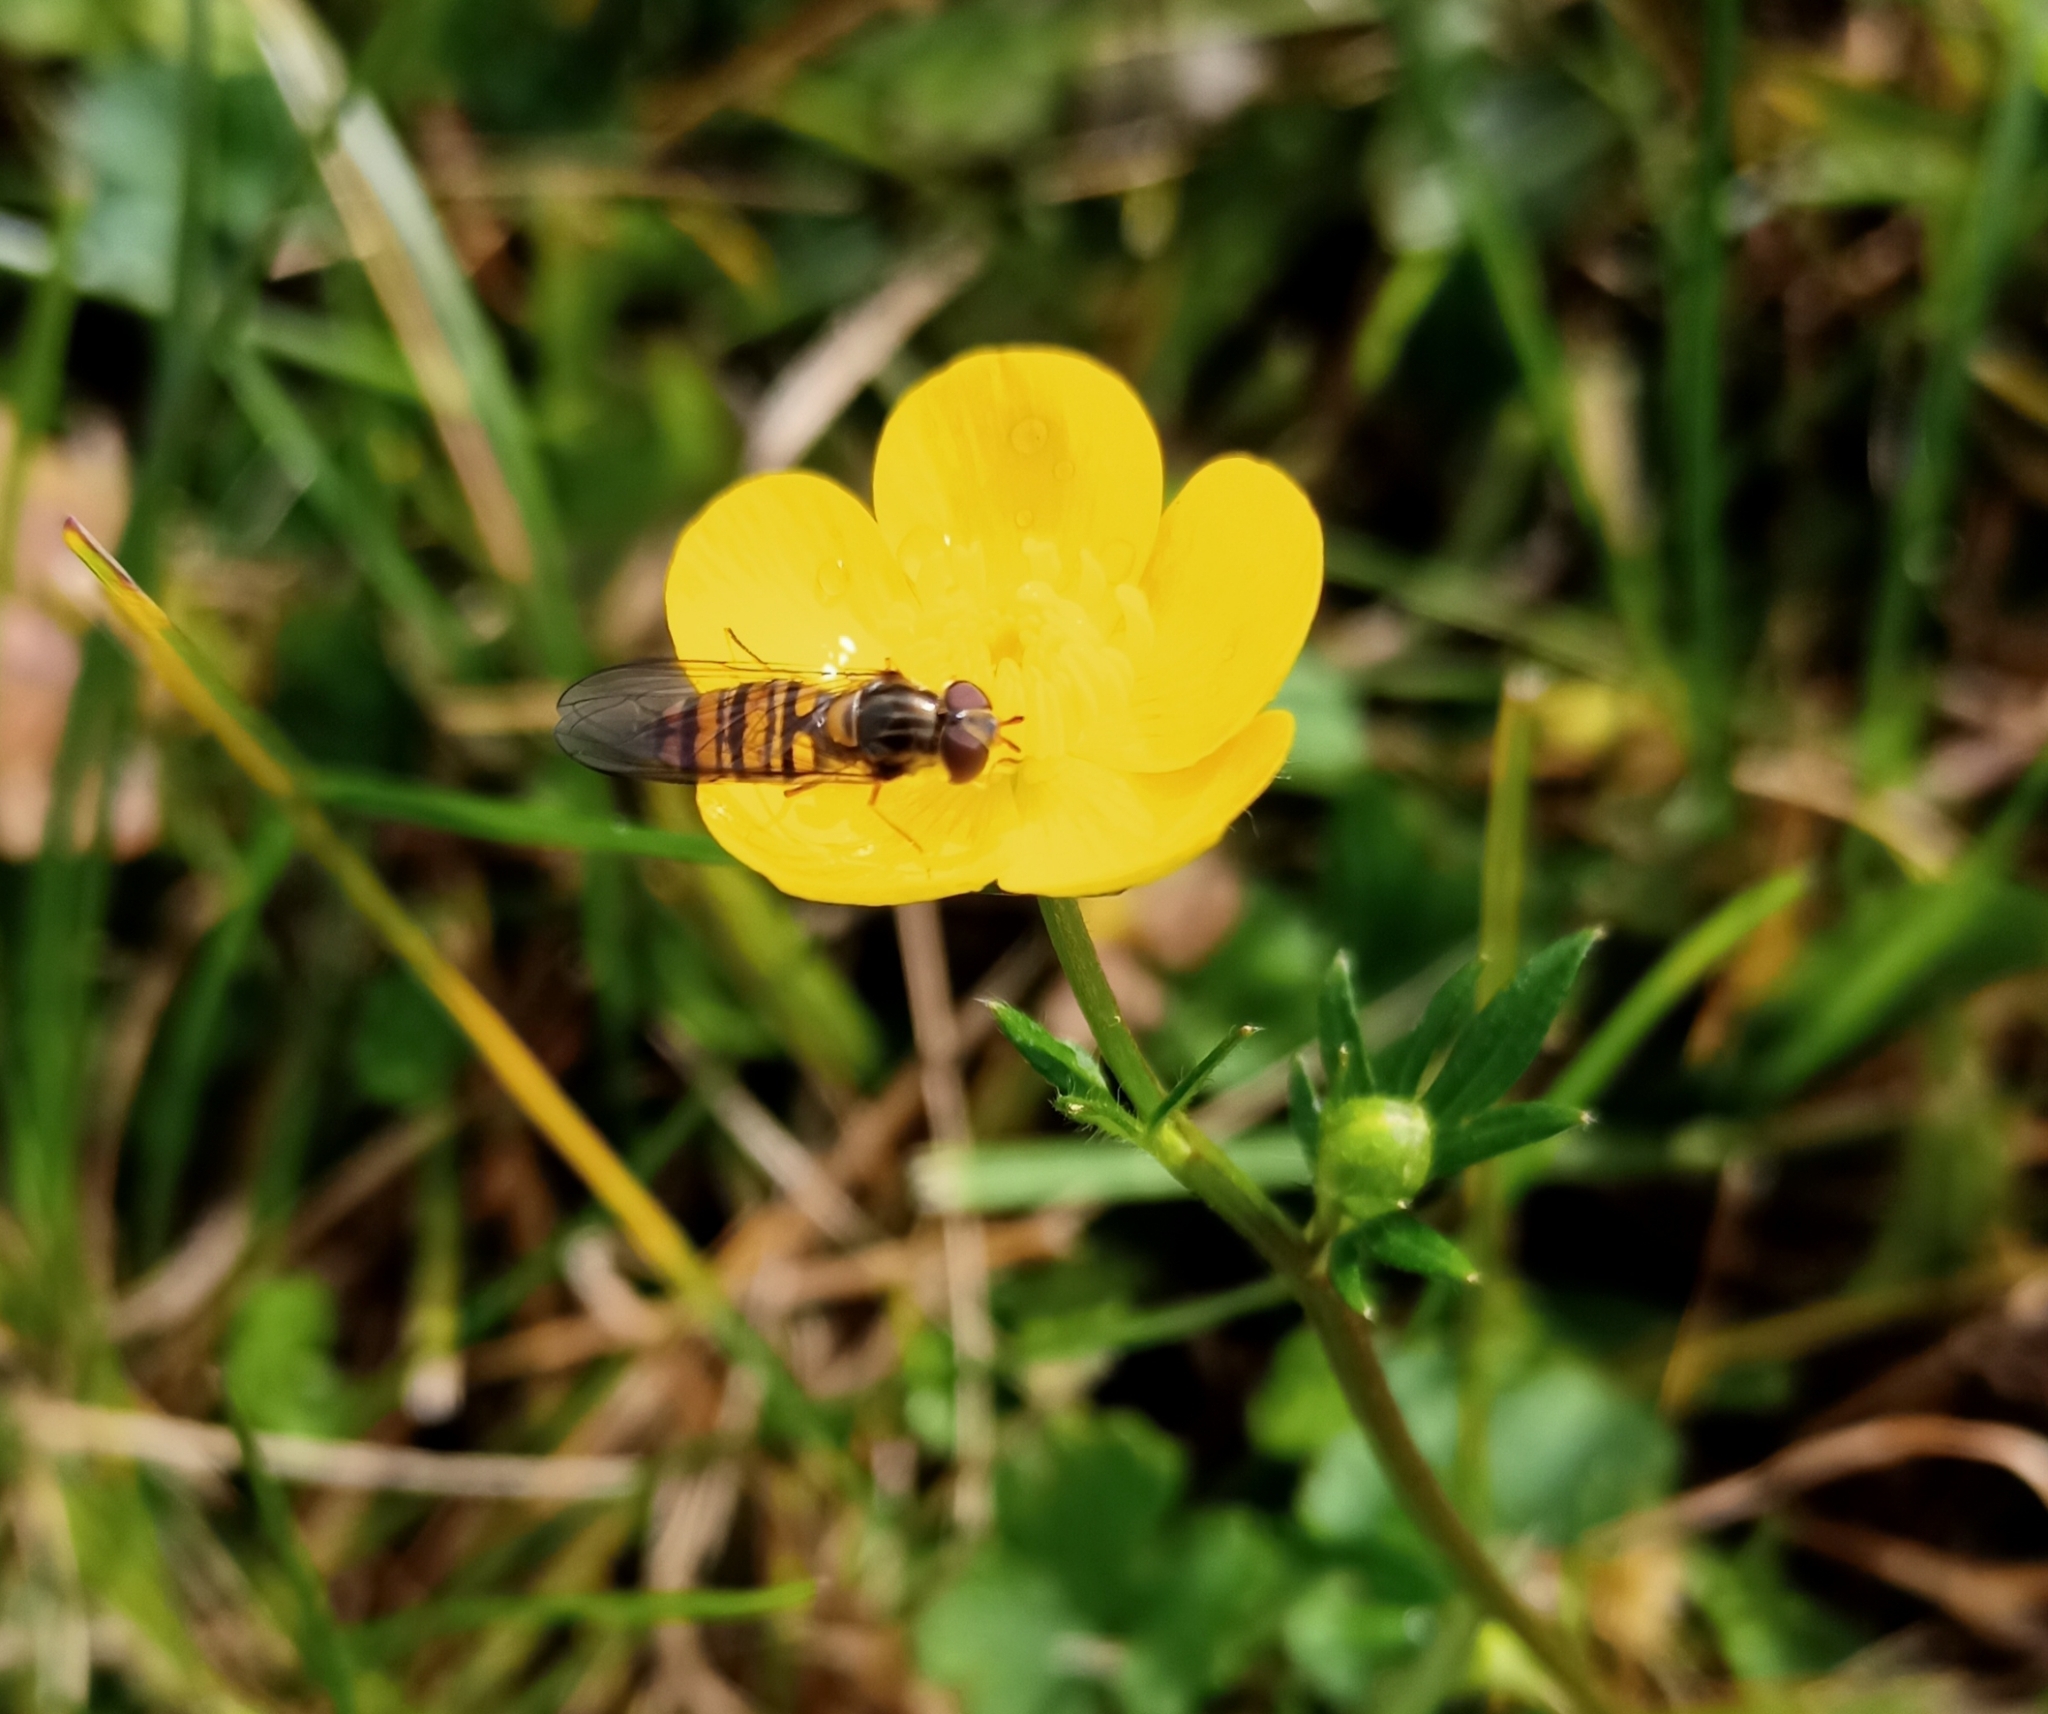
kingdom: Animalia
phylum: Arthropoda
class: Insecta
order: Diptera
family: Syrphidae
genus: Episyrphus
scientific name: Episyrphus balteatus
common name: Marmalade hoverfly
